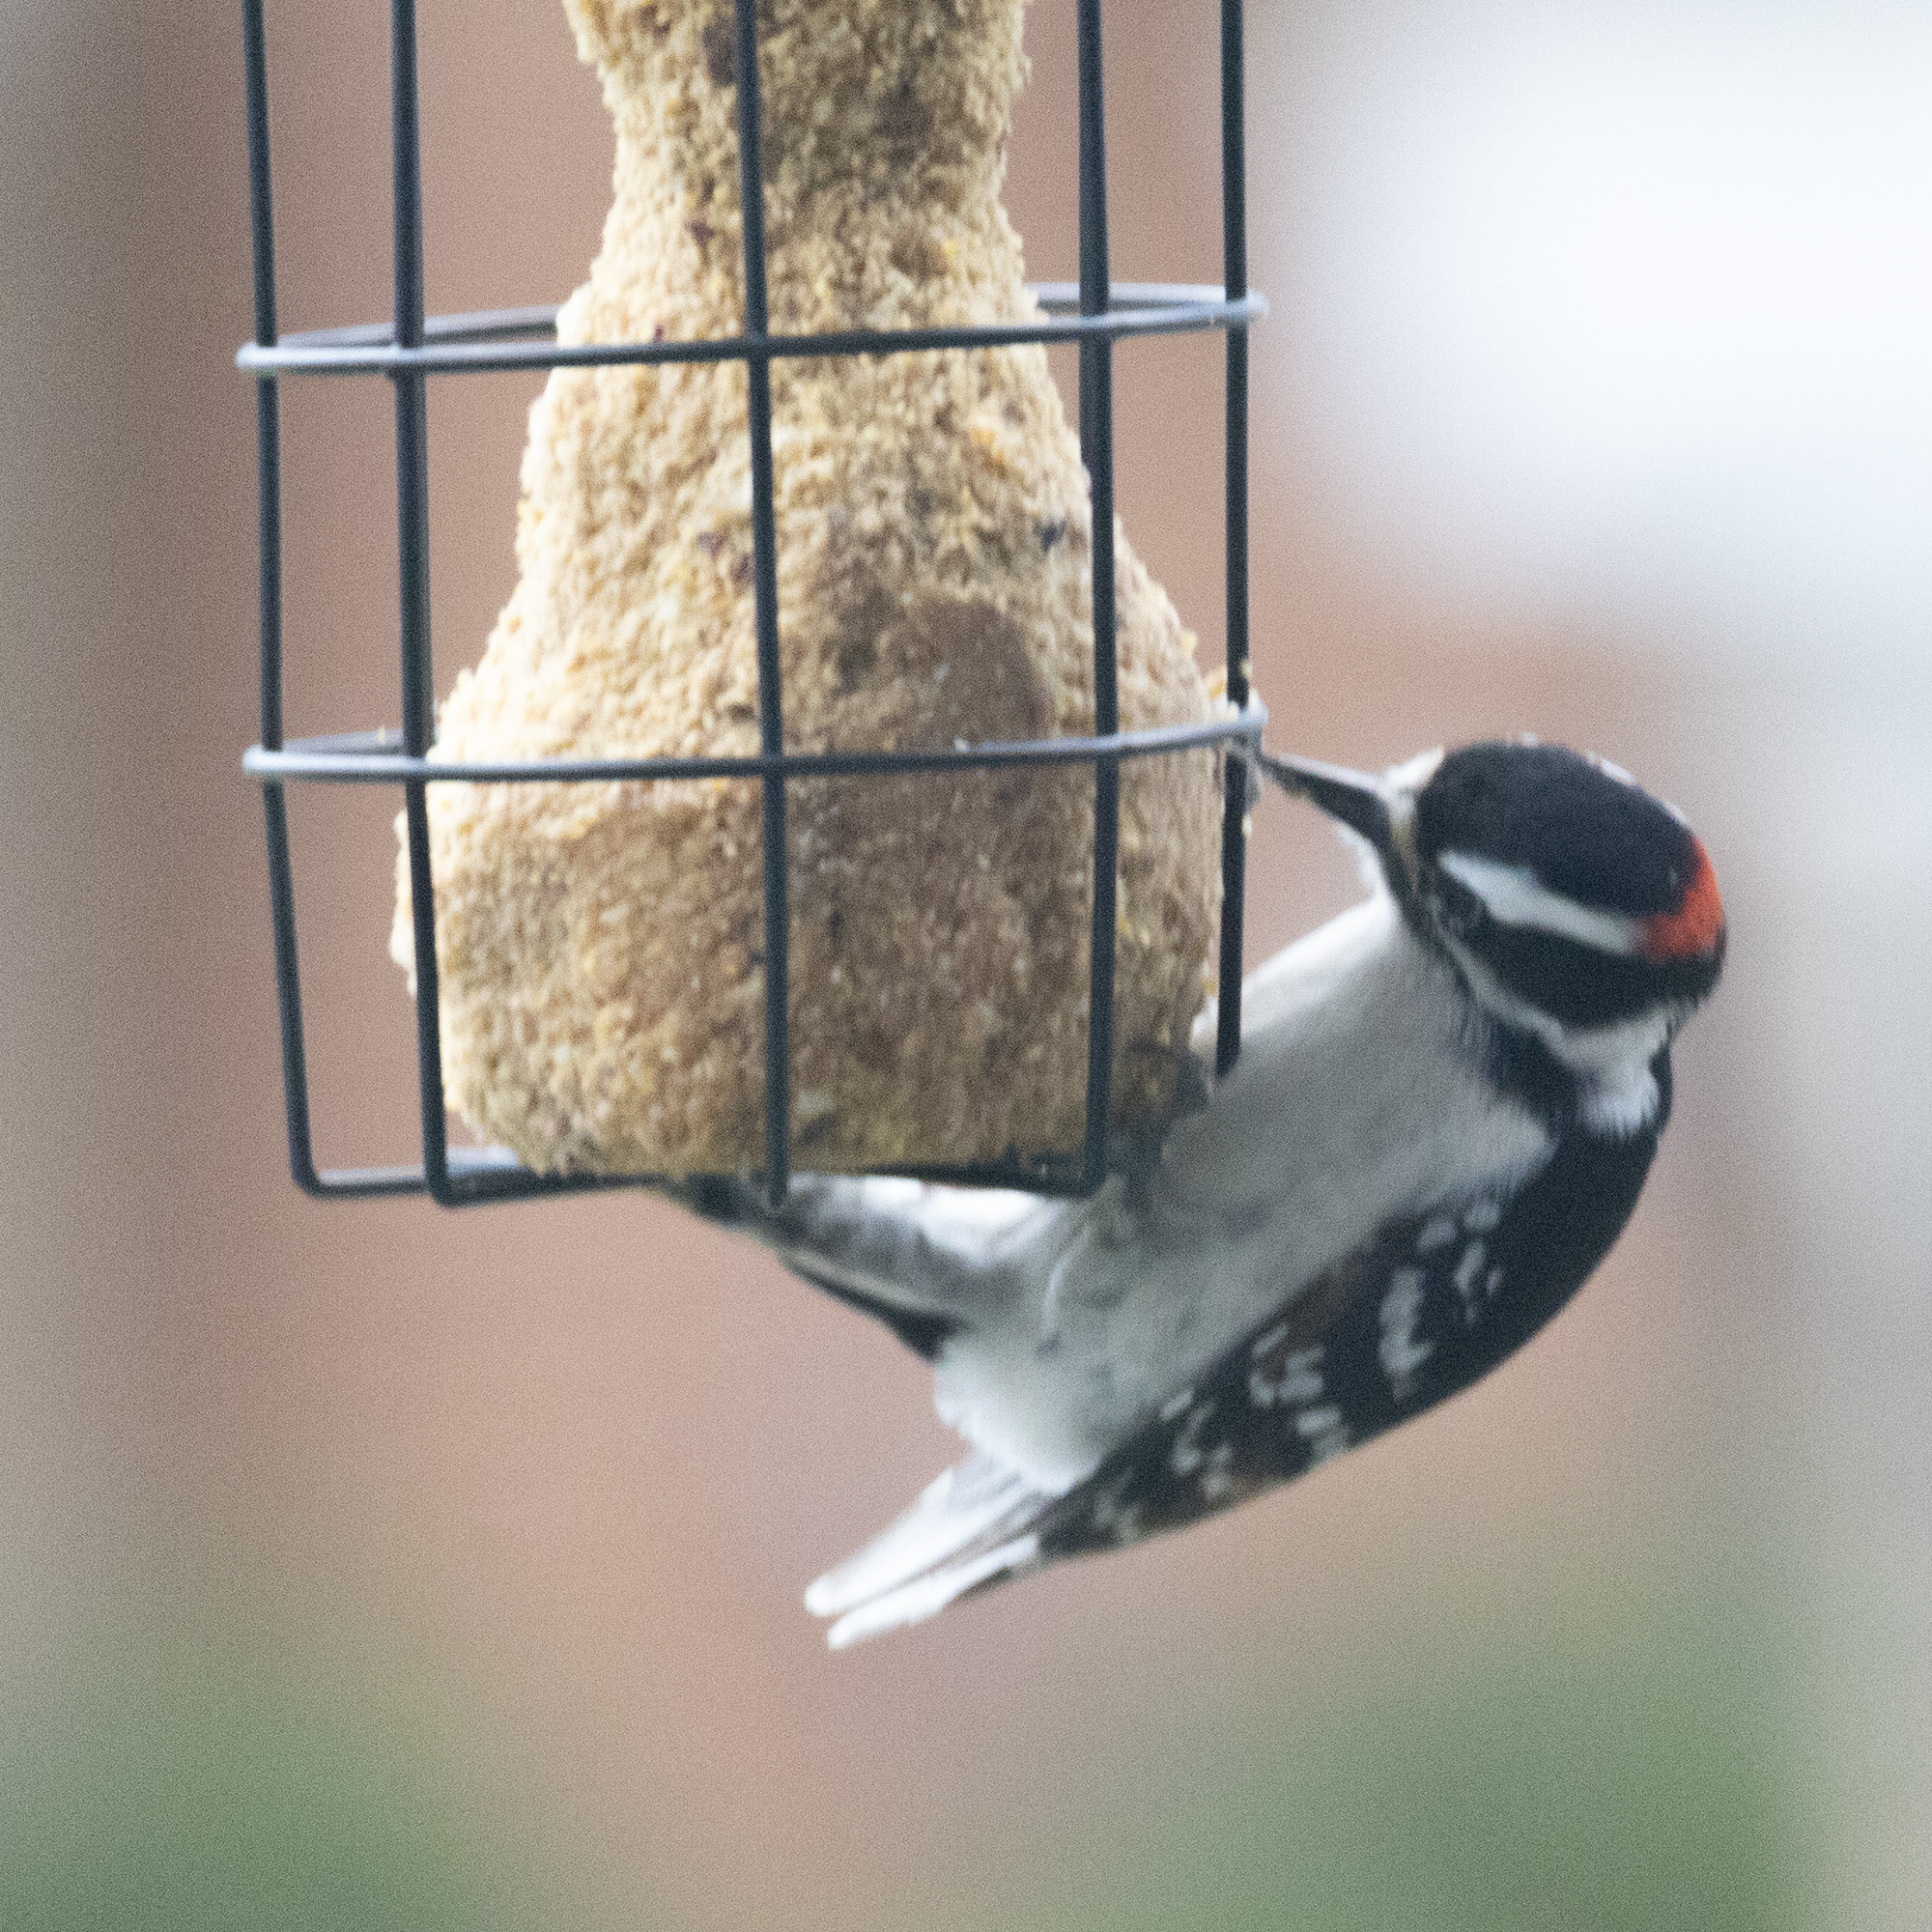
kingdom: Animalia
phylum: Chordata
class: Aves
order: Piciformes
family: Picidae
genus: Dryobates
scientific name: Dryobates pubescens
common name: Downy woodpecker
